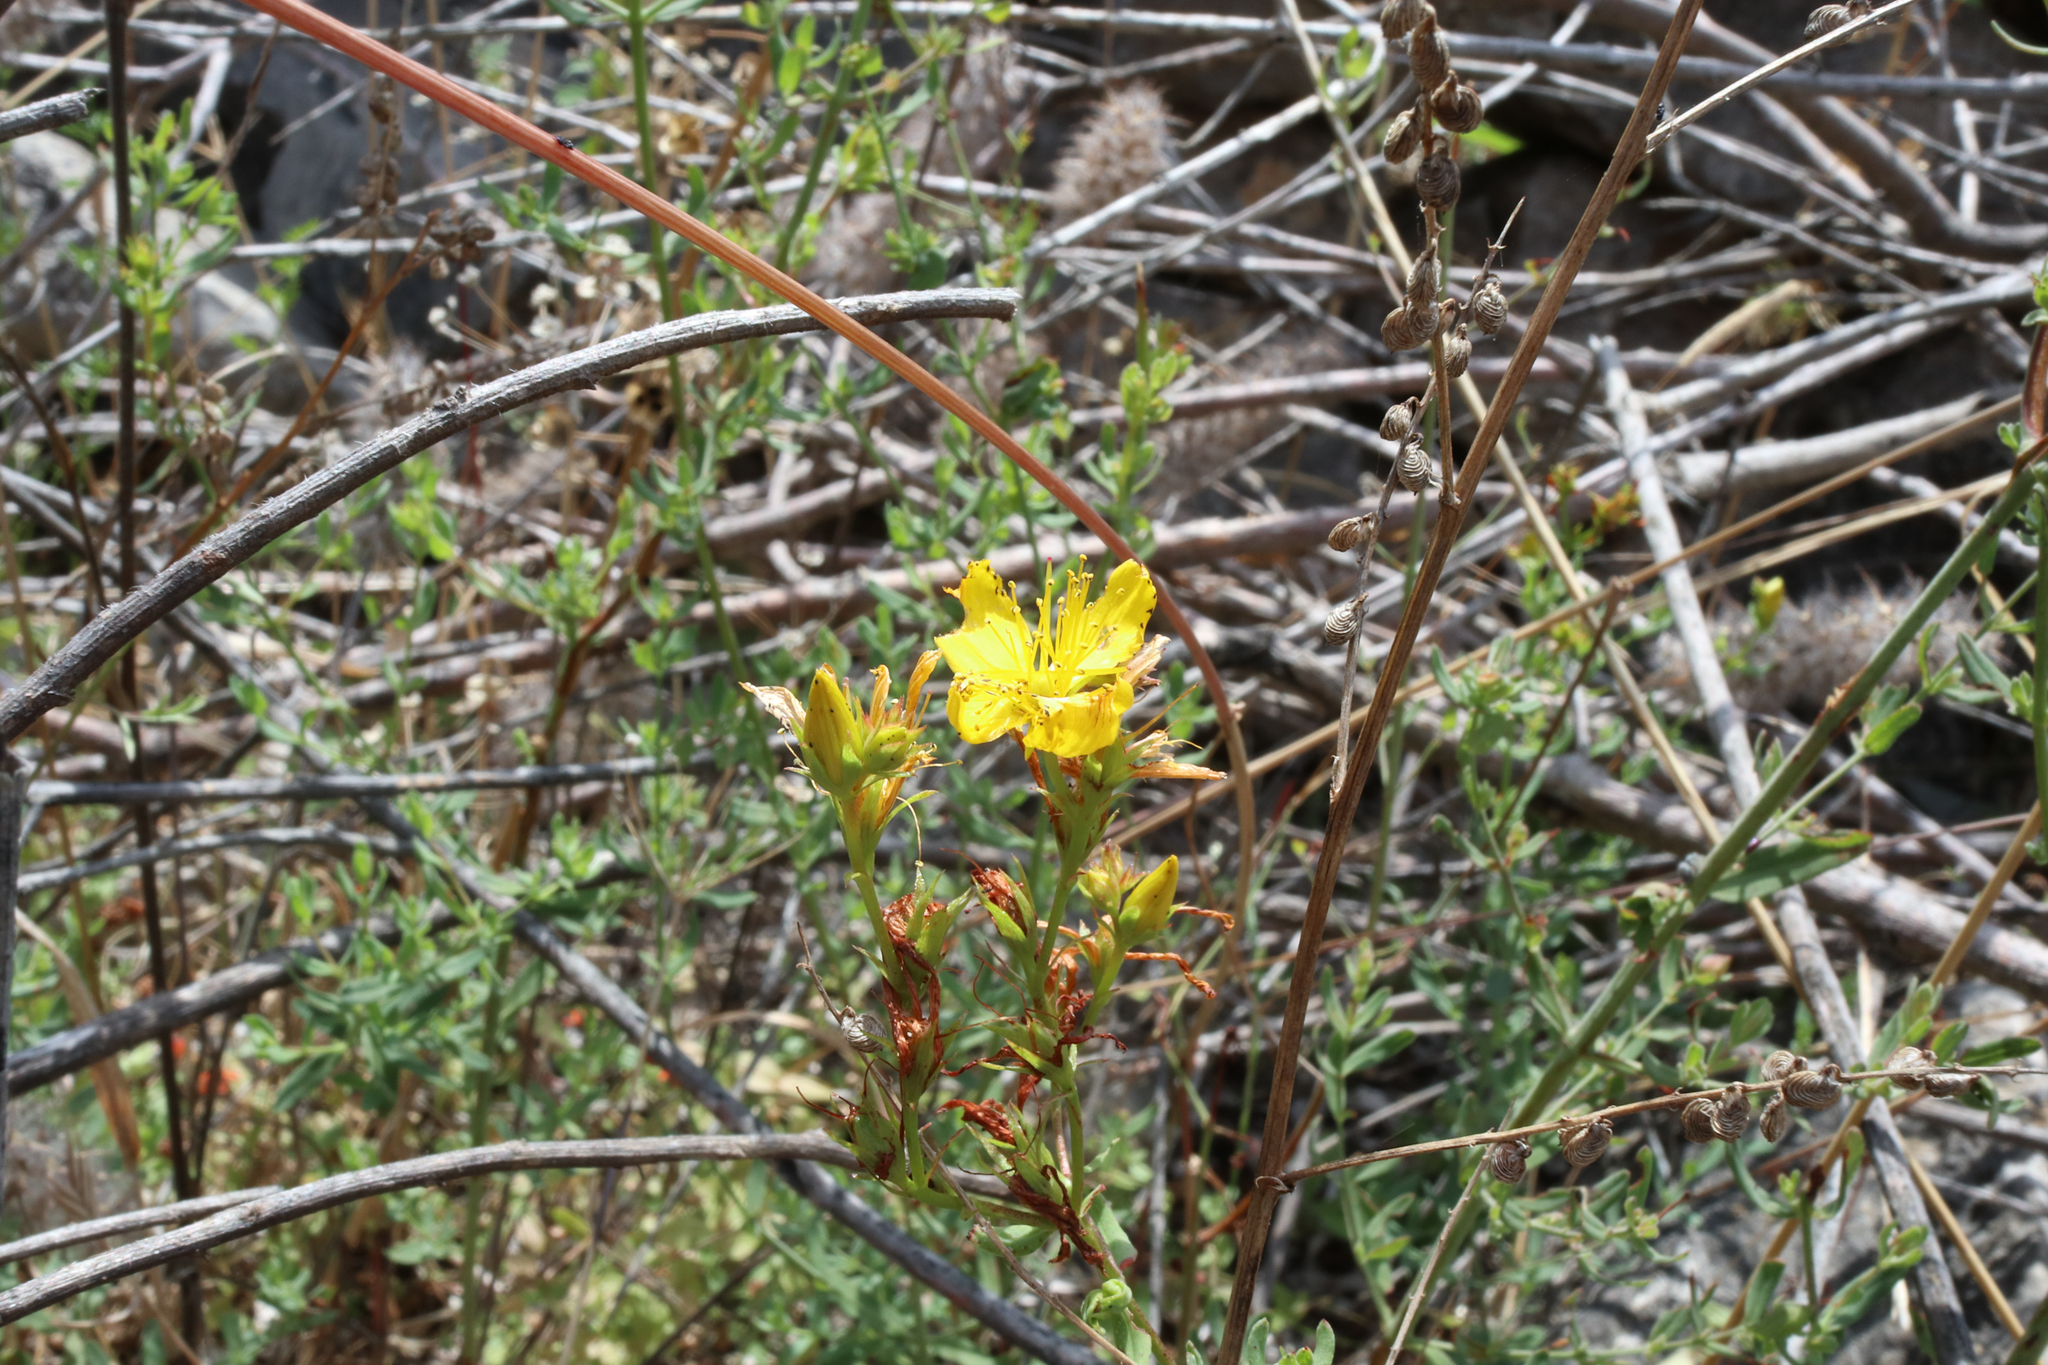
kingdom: Plantae
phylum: Tracheophyta
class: Magnoliopsida
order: Malpighiales
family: Hypericaceae
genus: Hypericum
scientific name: Hypericum perforatum
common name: Common st. johnswort
